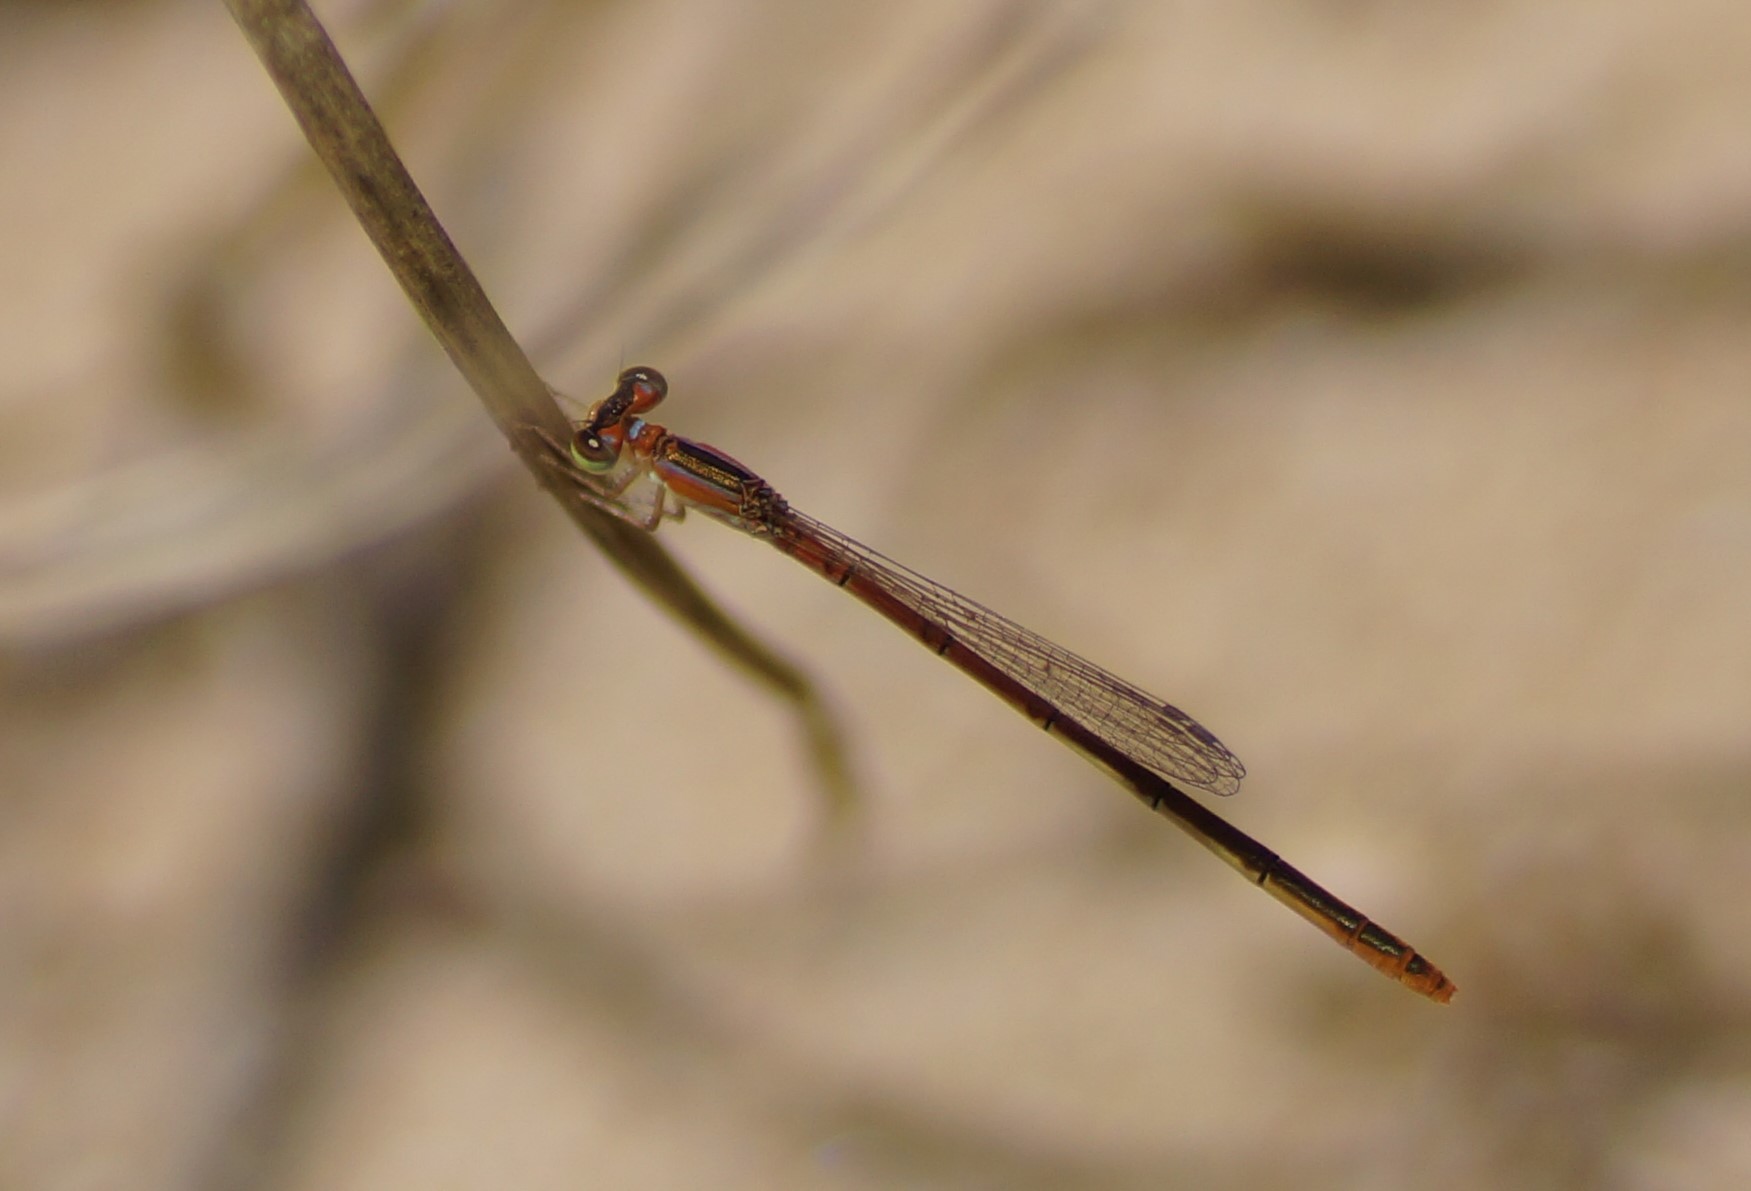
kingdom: Animalia
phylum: Arthropoda
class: Insecta
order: Odonata
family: Coenagrionidae
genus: Agriocnemis
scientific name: Agriocnemis pygmaea
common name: Pygmy wisp
